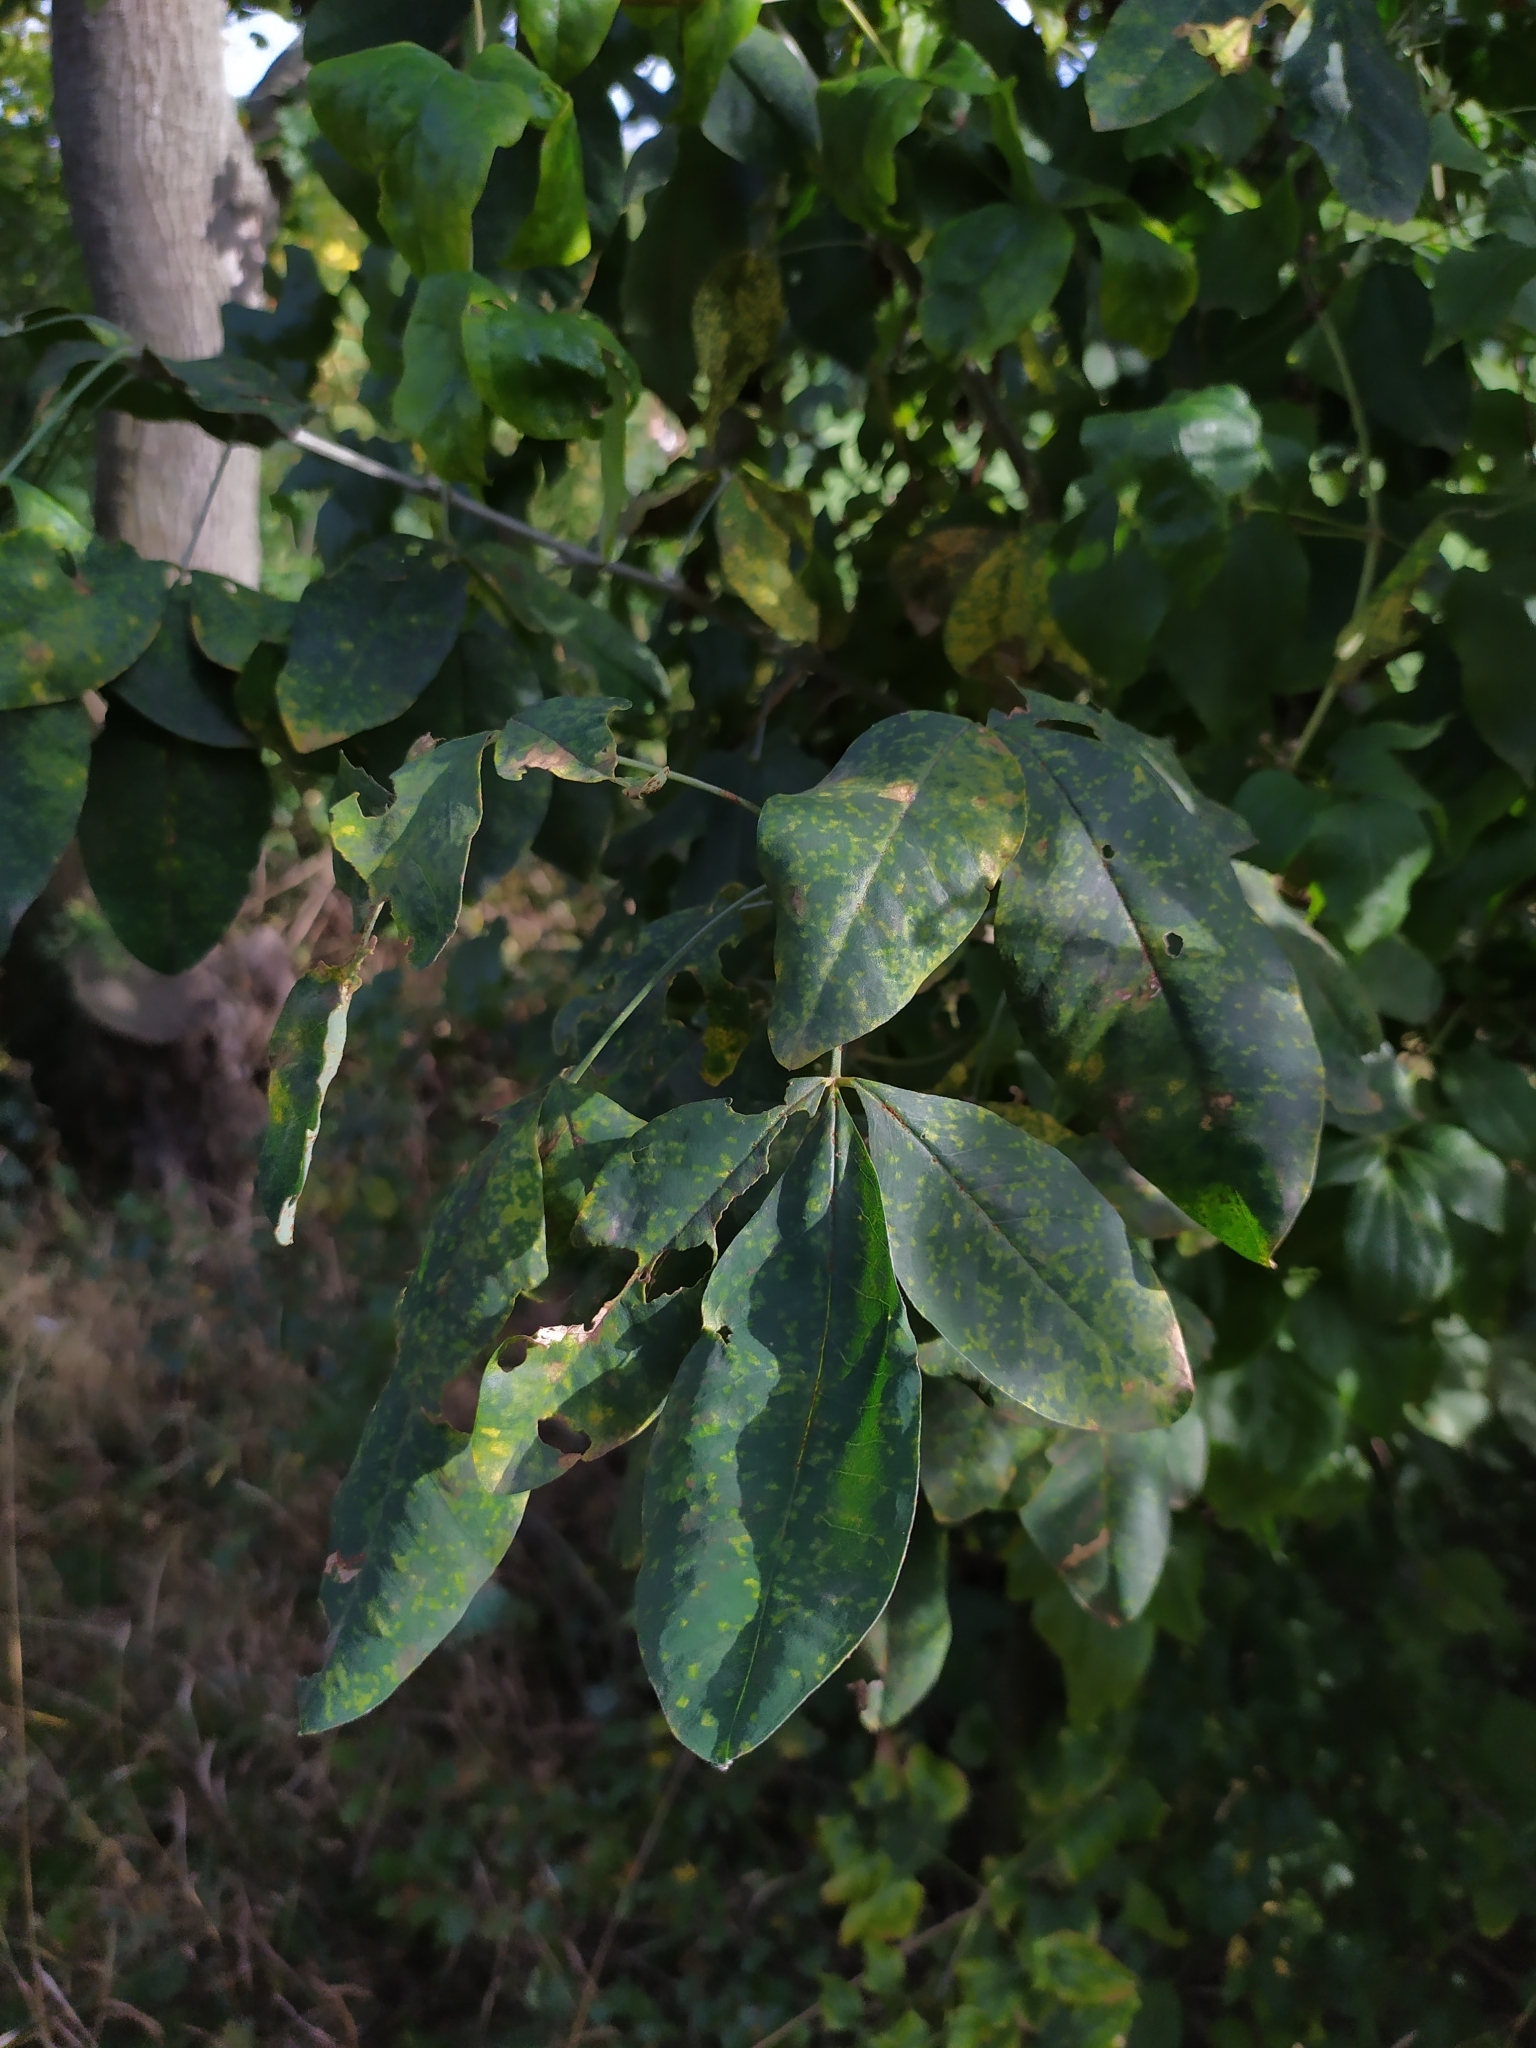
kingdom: Plantae
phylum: Tracheophyta
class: Magnoliopsida
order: Fabales
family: Fabaceae
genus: Laburnum
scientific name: Laburnum anagyroides
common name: Laburnum
